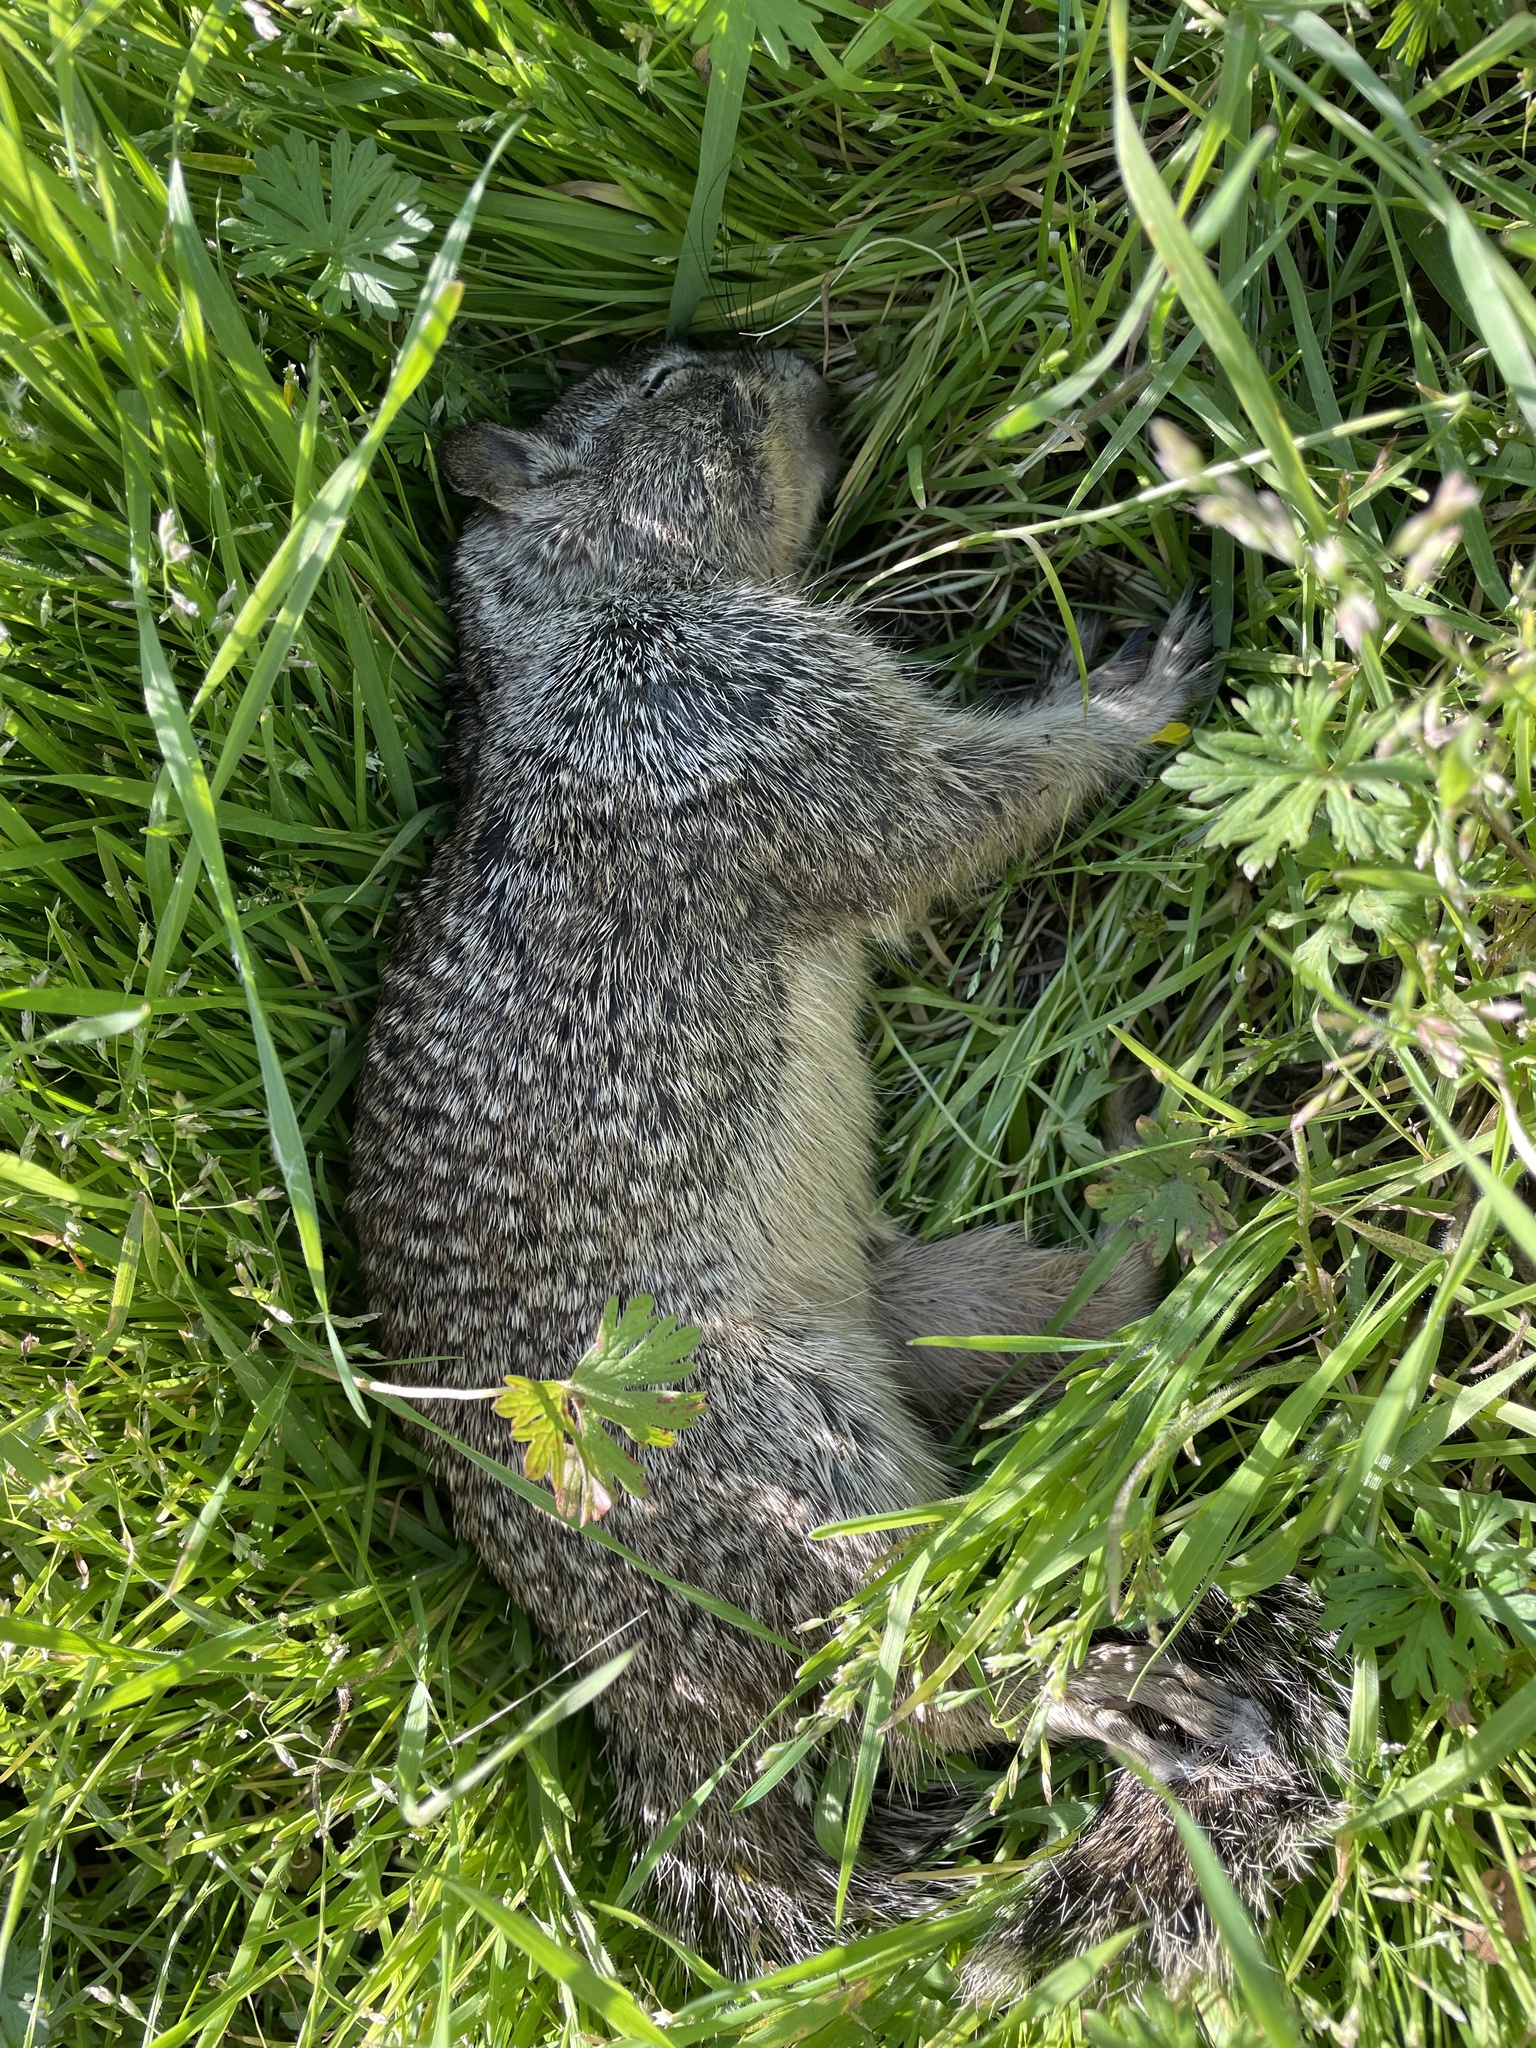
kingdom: Animalia
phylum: Chordata
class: Mammalia
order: Rodentia
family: Sciuridae
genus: Otospermophilus
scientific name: Otospermophilus beecheyi
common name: California ground squirrel
